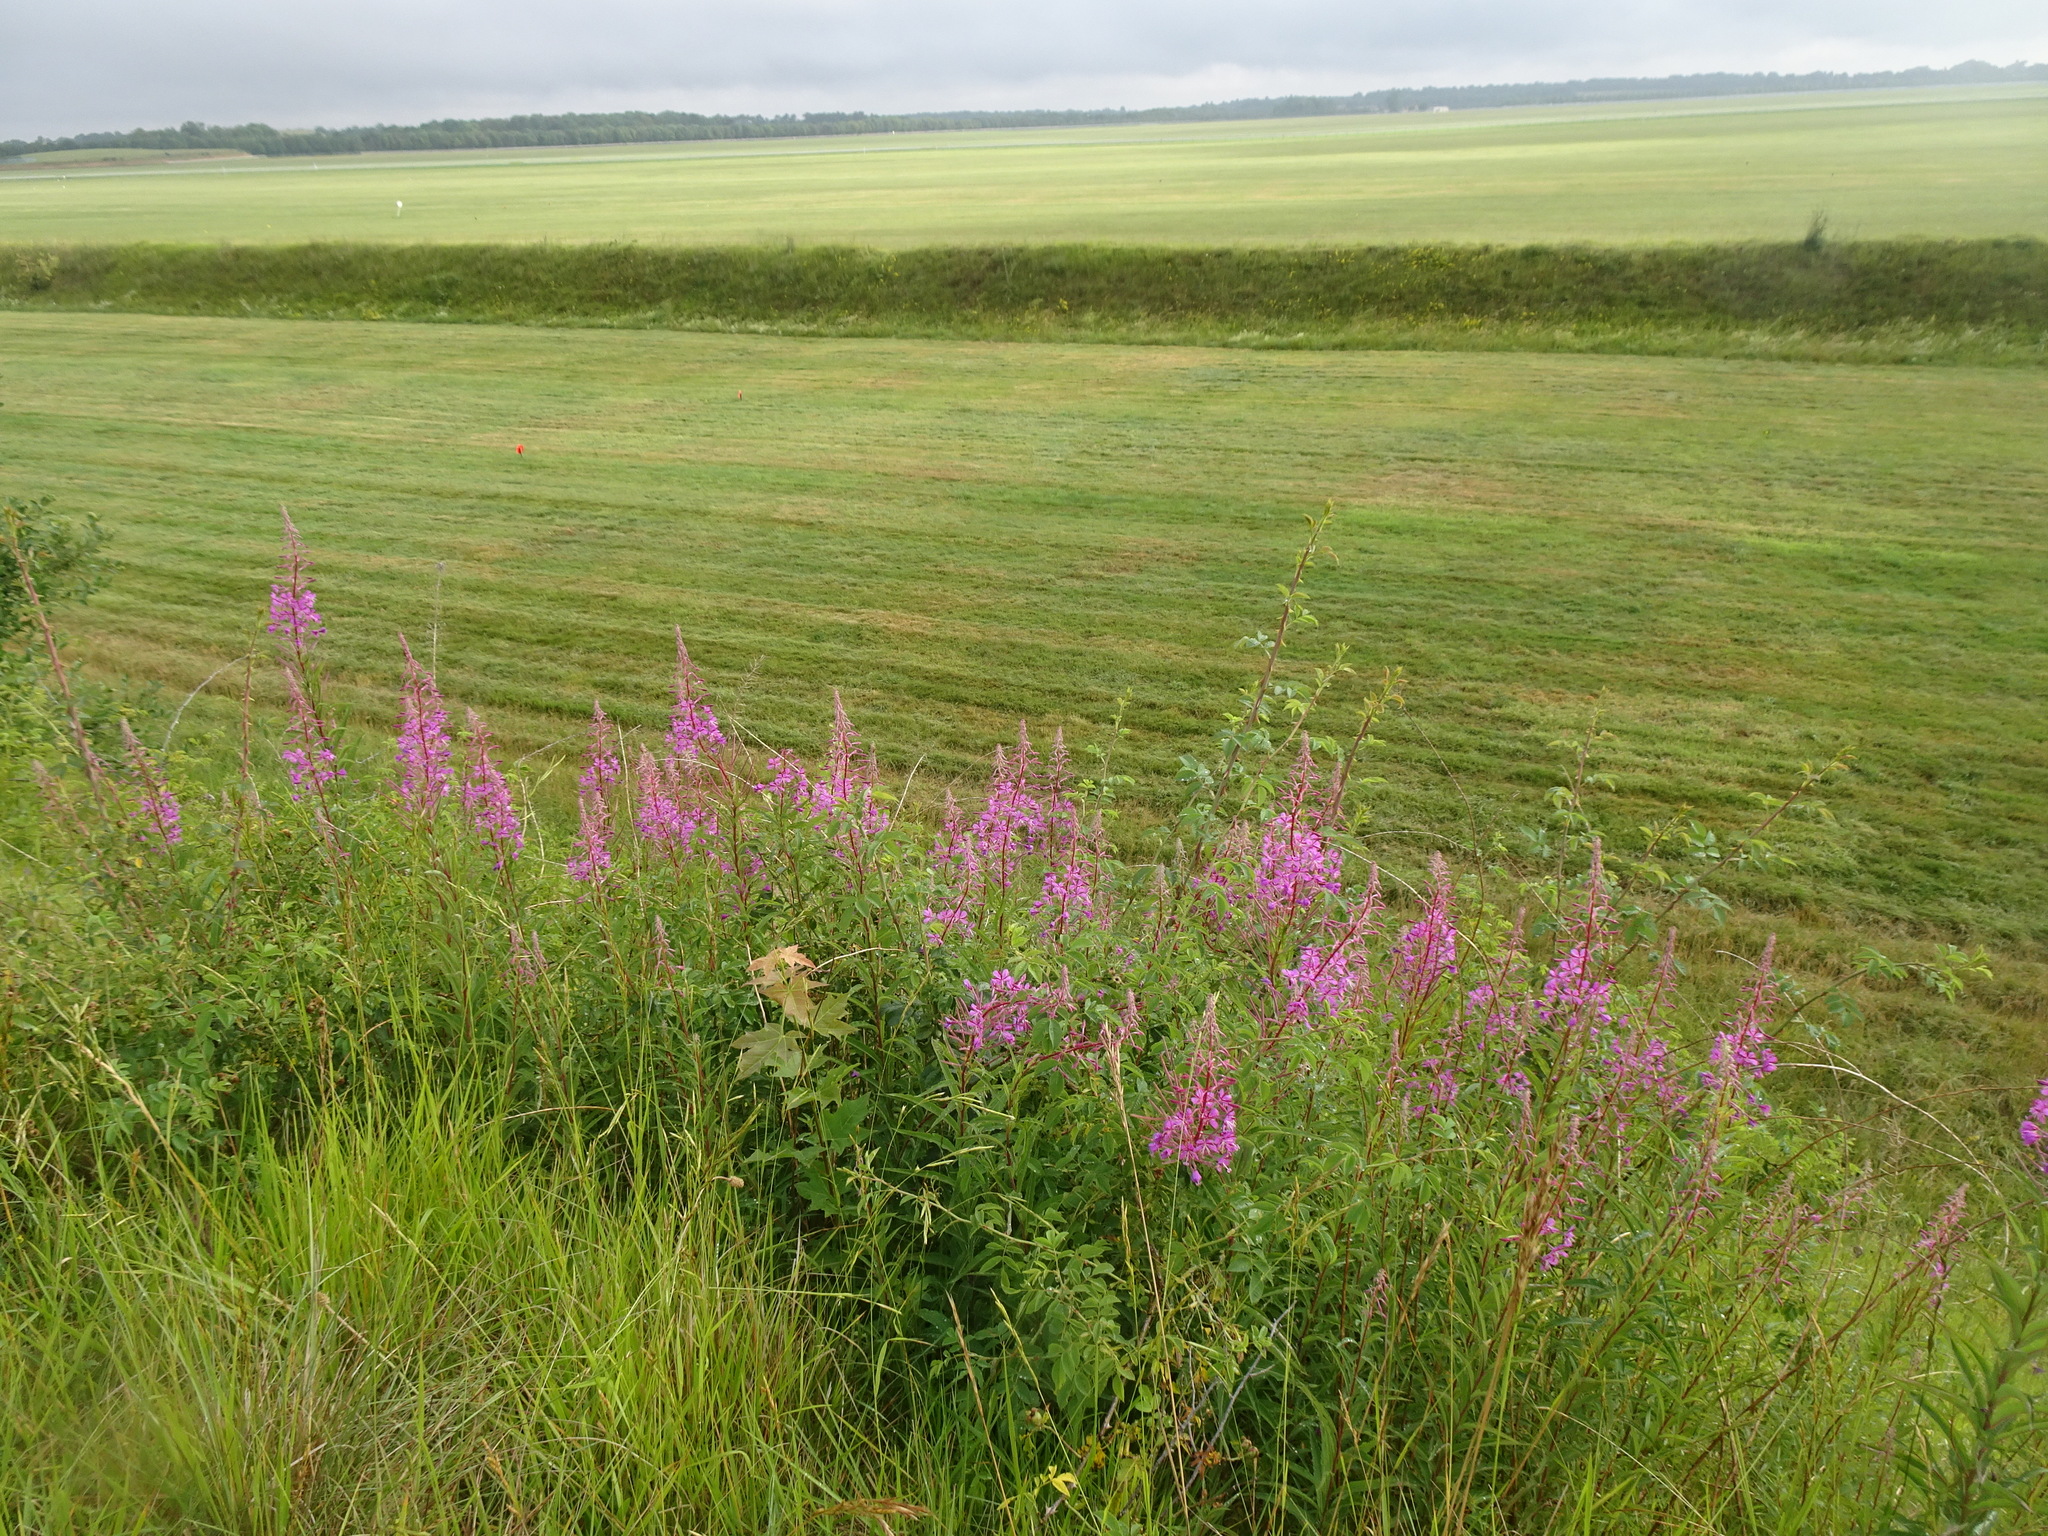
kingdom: Plantae
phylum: Tracheophyta
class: Magnoliopsida
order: Myrtales
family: Onagraceae
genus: Chamaenerion
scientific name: Chamaenerion angustifolium
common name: Fireweed
